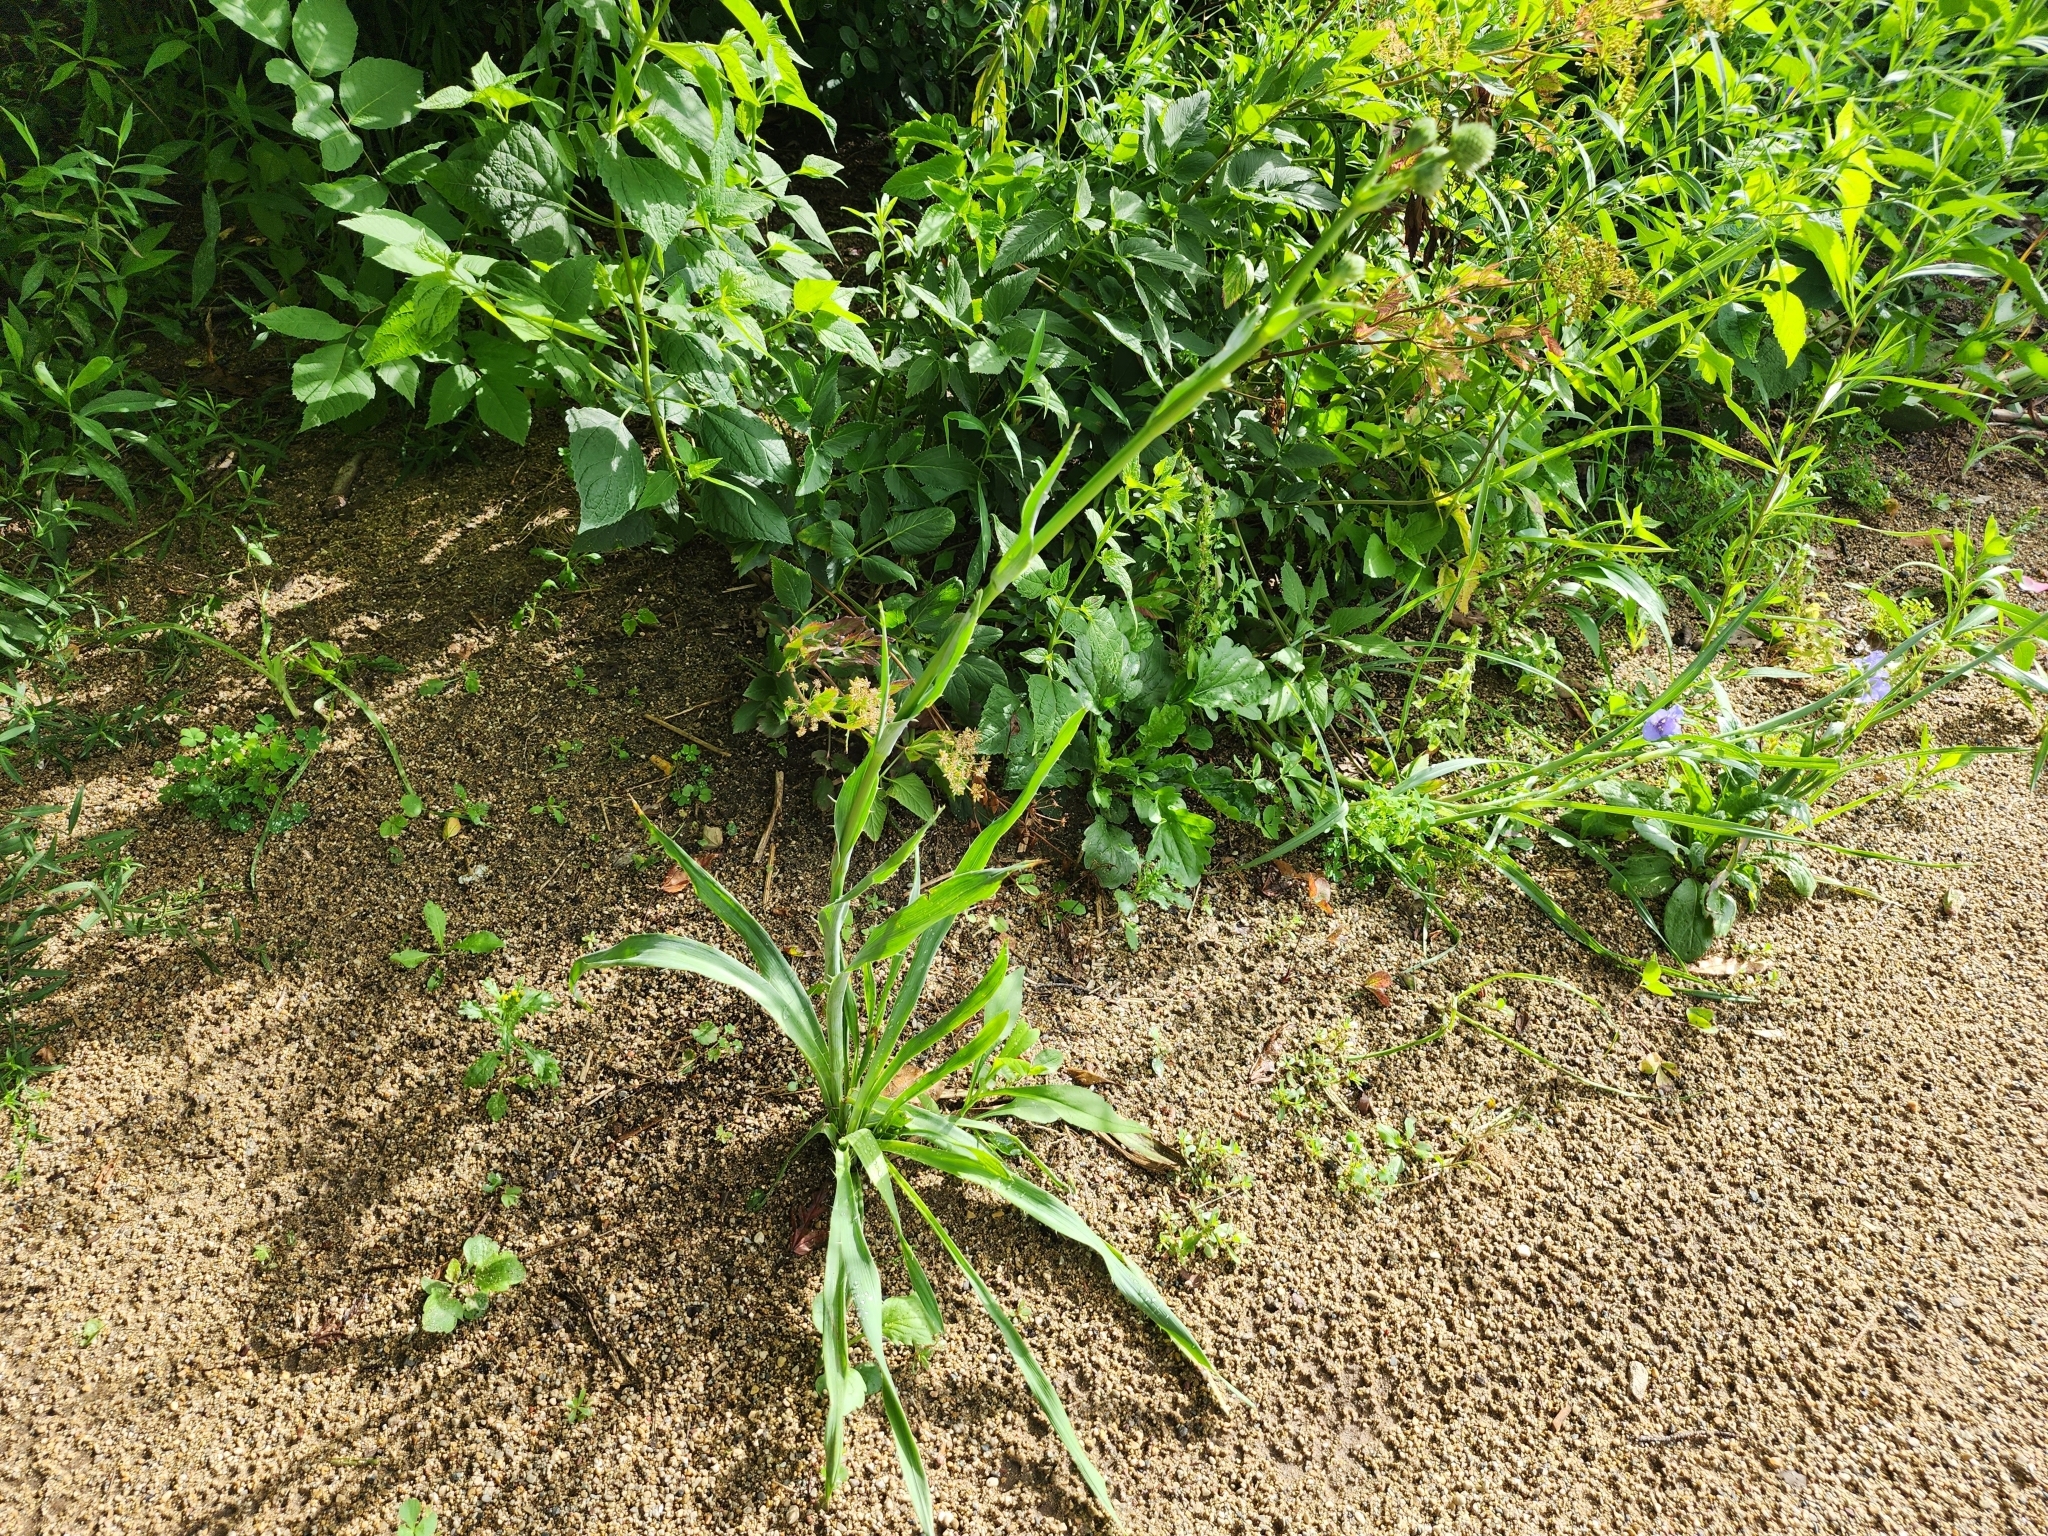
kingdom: Plantae
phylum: Tracheophyta
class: Magnoliopsida
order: Apiales
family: Apiaceae
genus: Eryngium
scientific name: Eryngium yuccifolium
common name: Button eryngo
